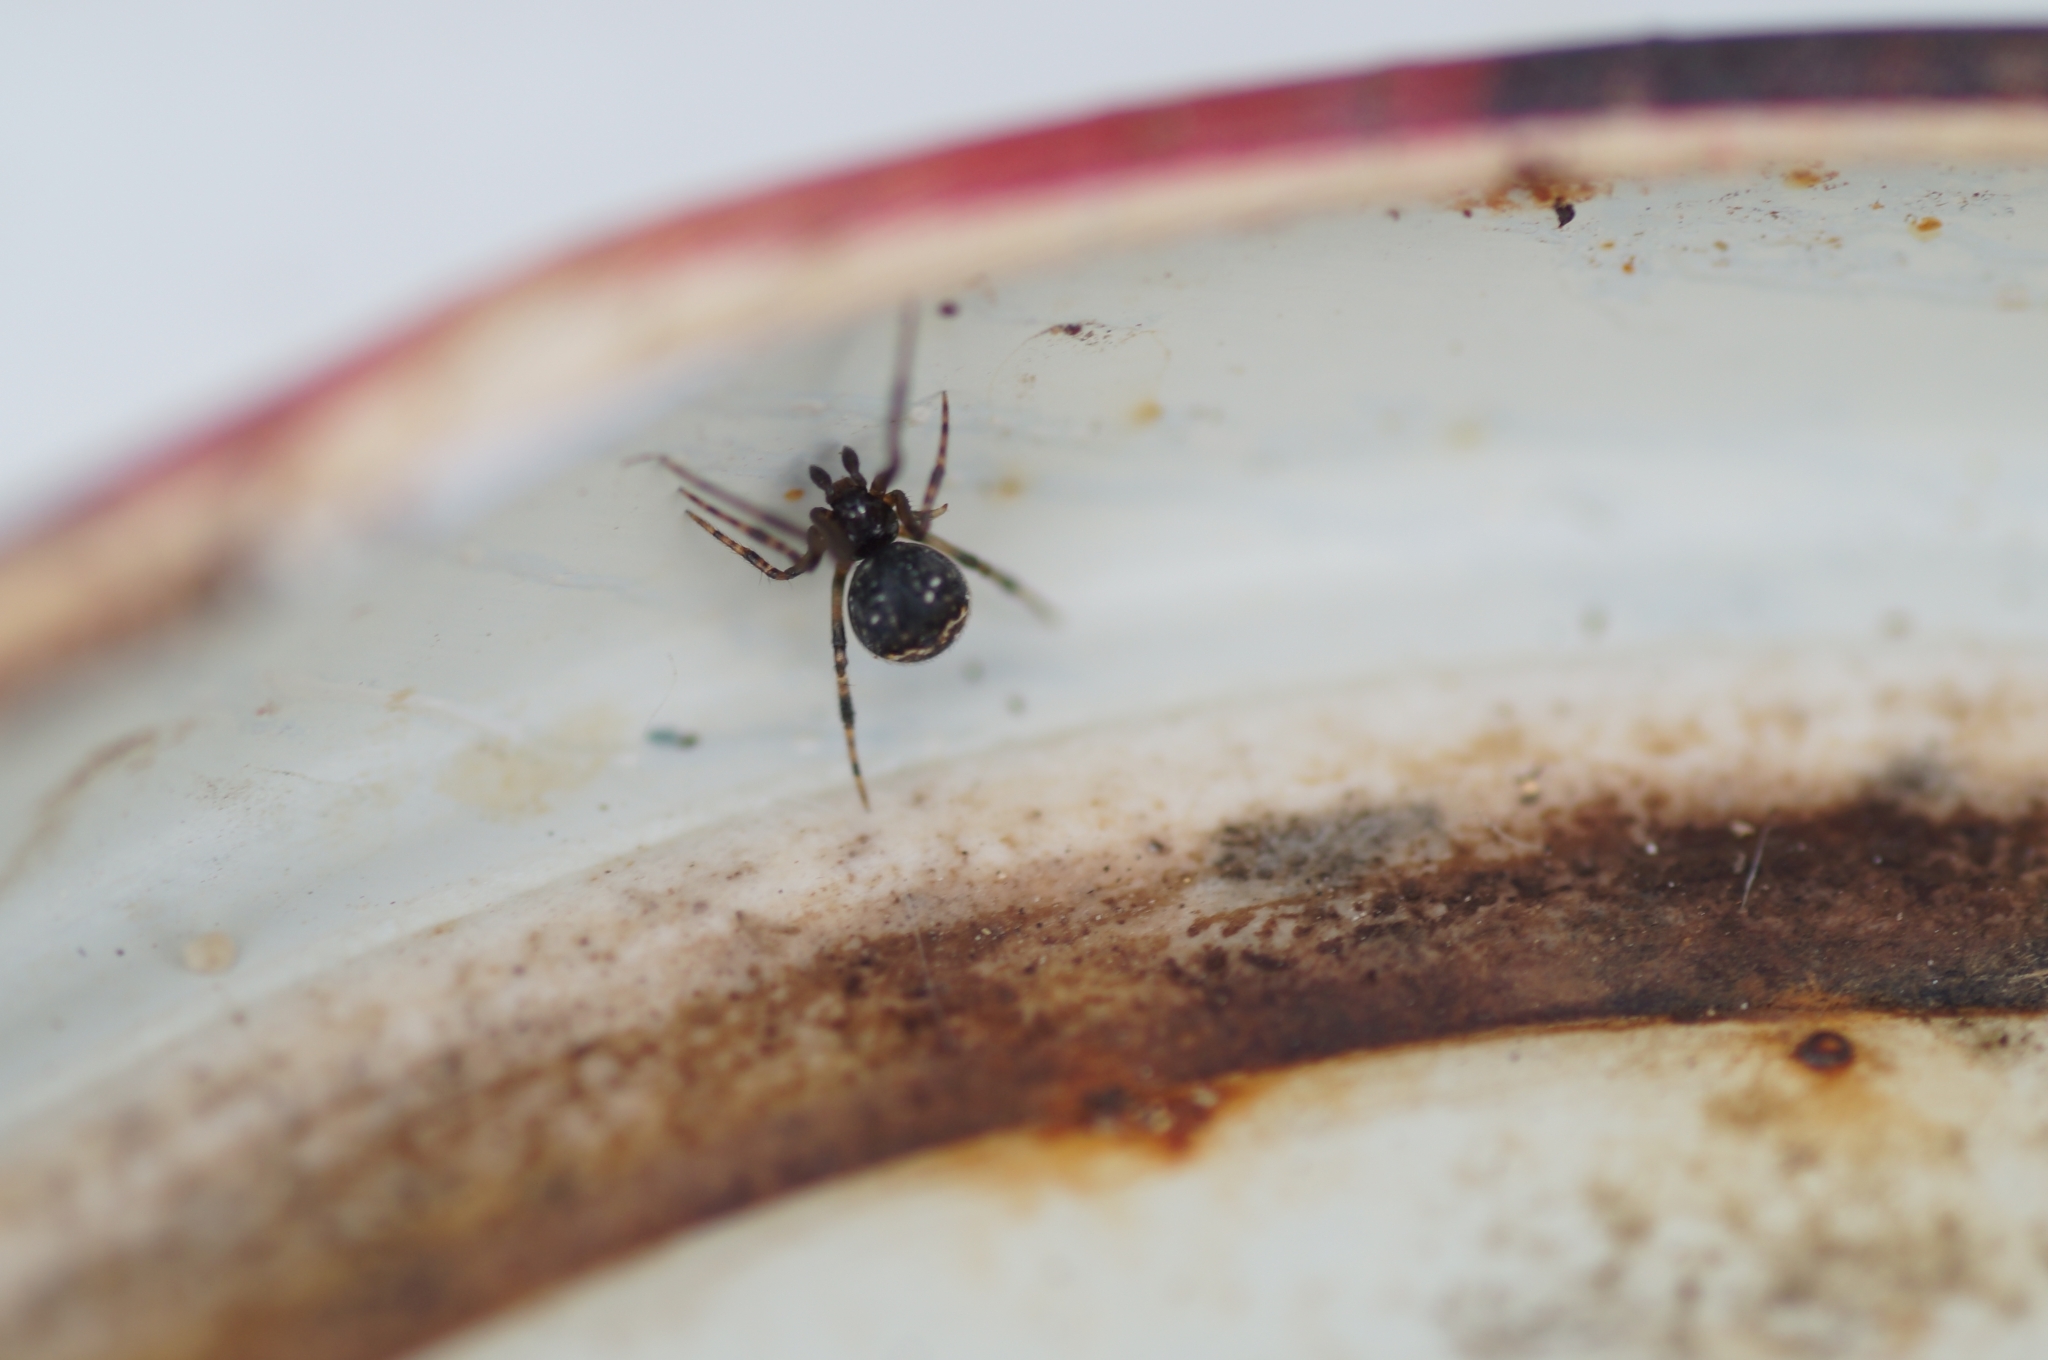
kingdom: Animalia
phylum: Arthropoda
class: Arachnida
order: Araneae
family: Theridiidae
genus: Cryptachaea
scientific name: Cryptachaea riparia
